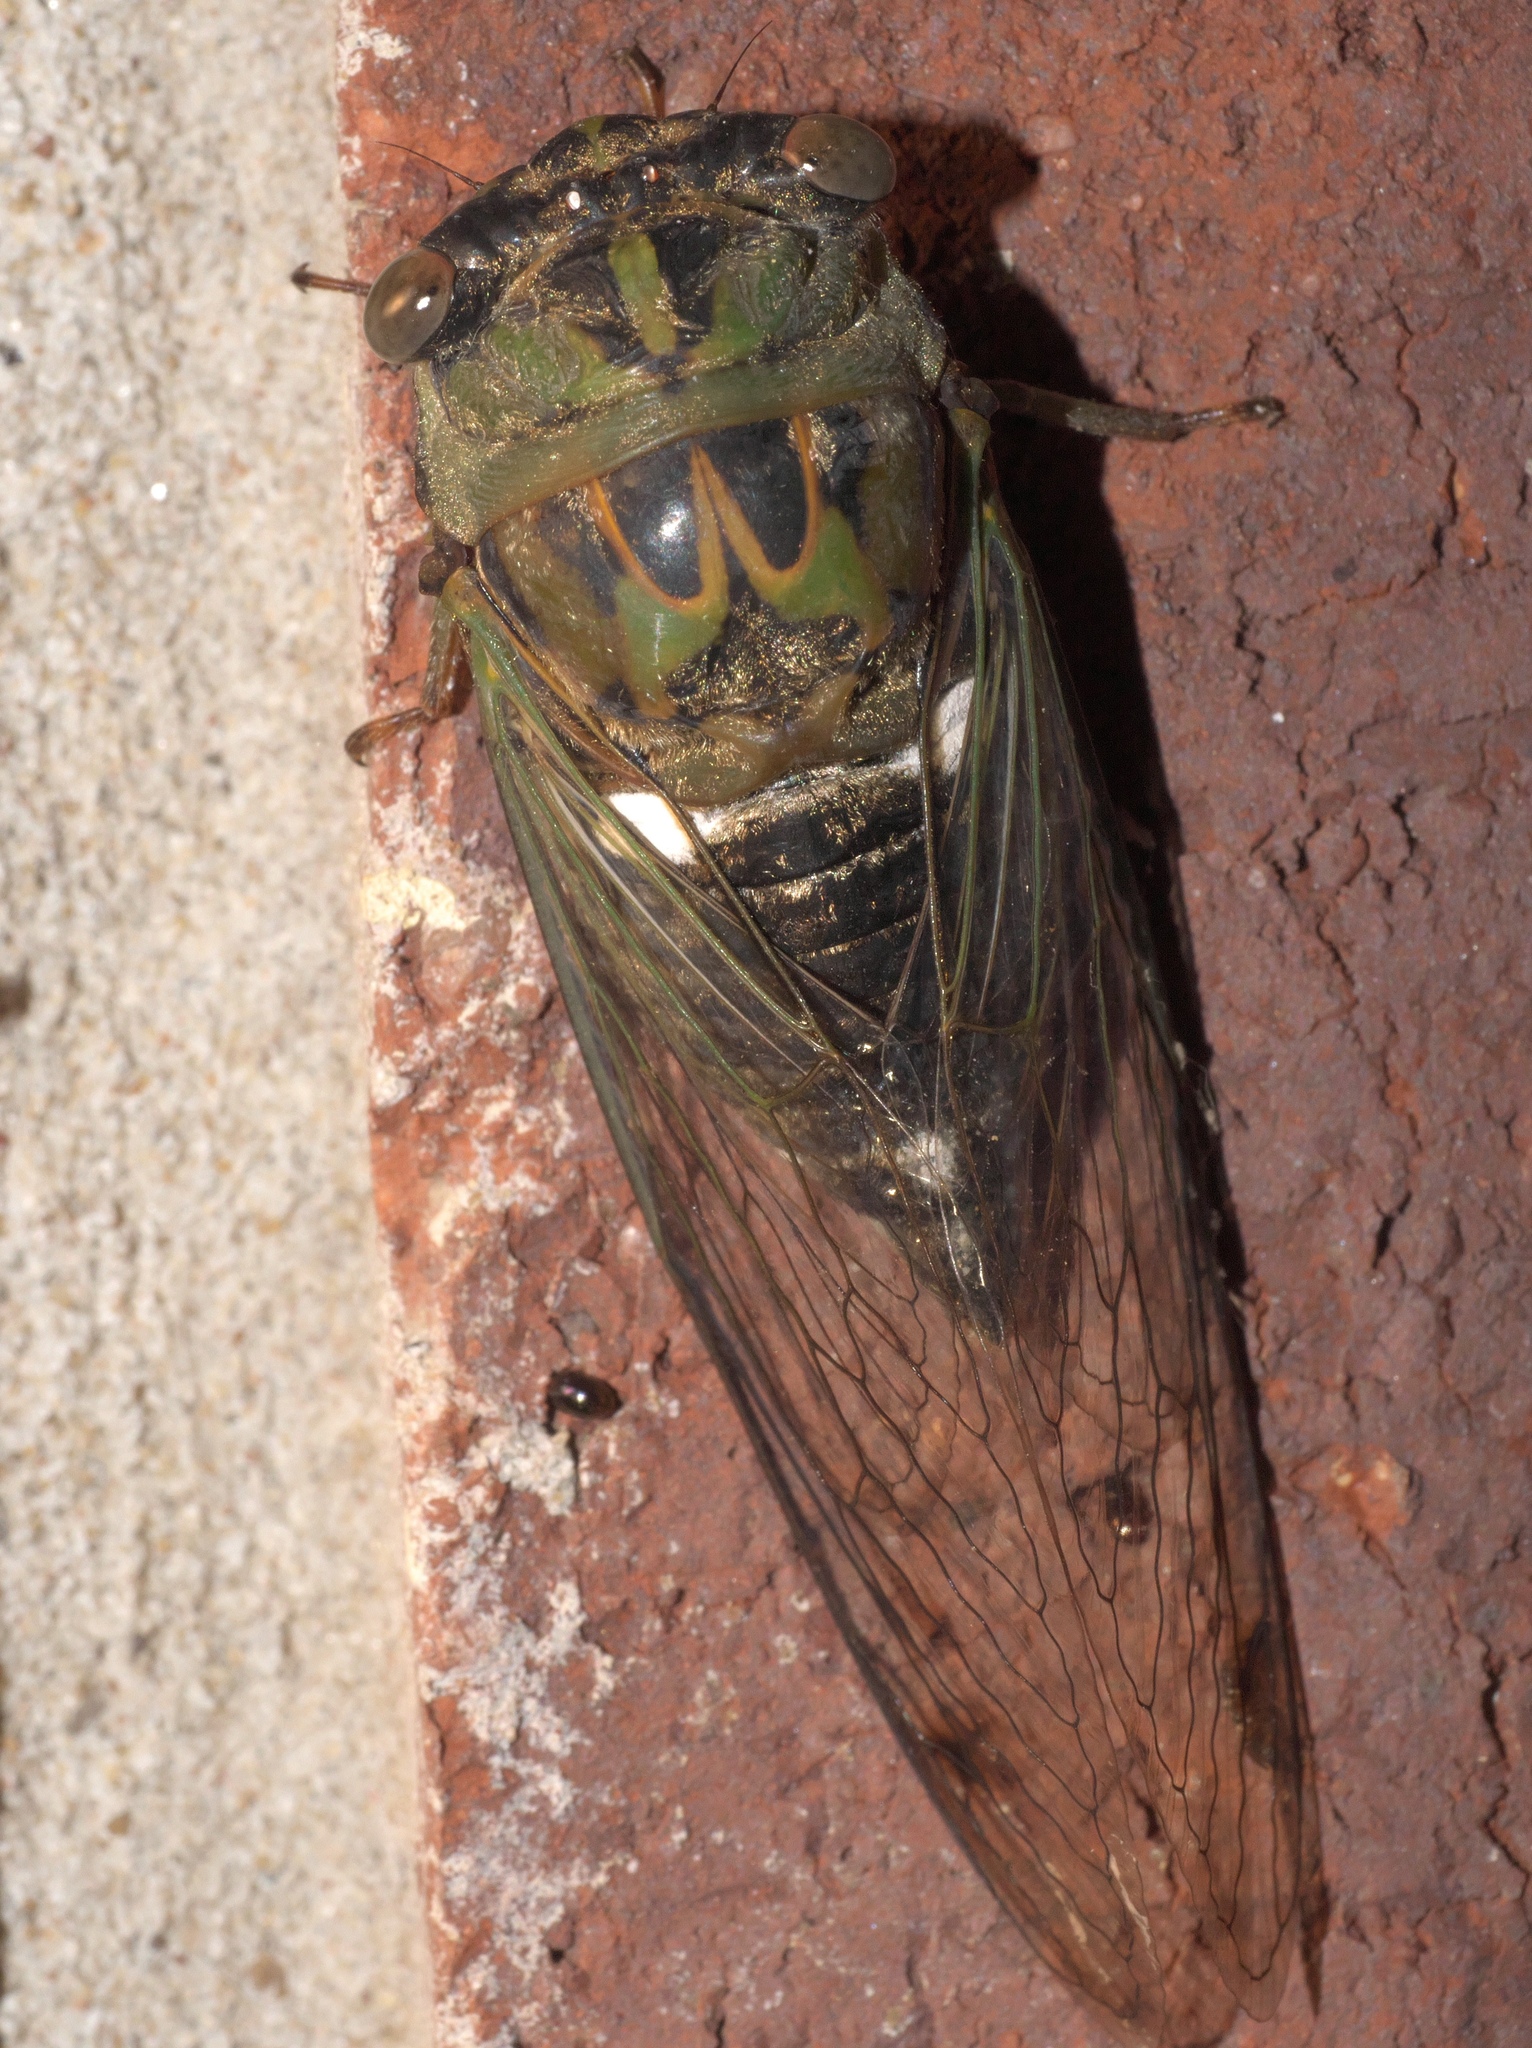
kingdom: Animalia
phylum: Arthropoda
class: Insecta
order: Hemiptera
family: Cicadidae
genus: Neotibicen
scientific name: Neotibicen pruinosus
